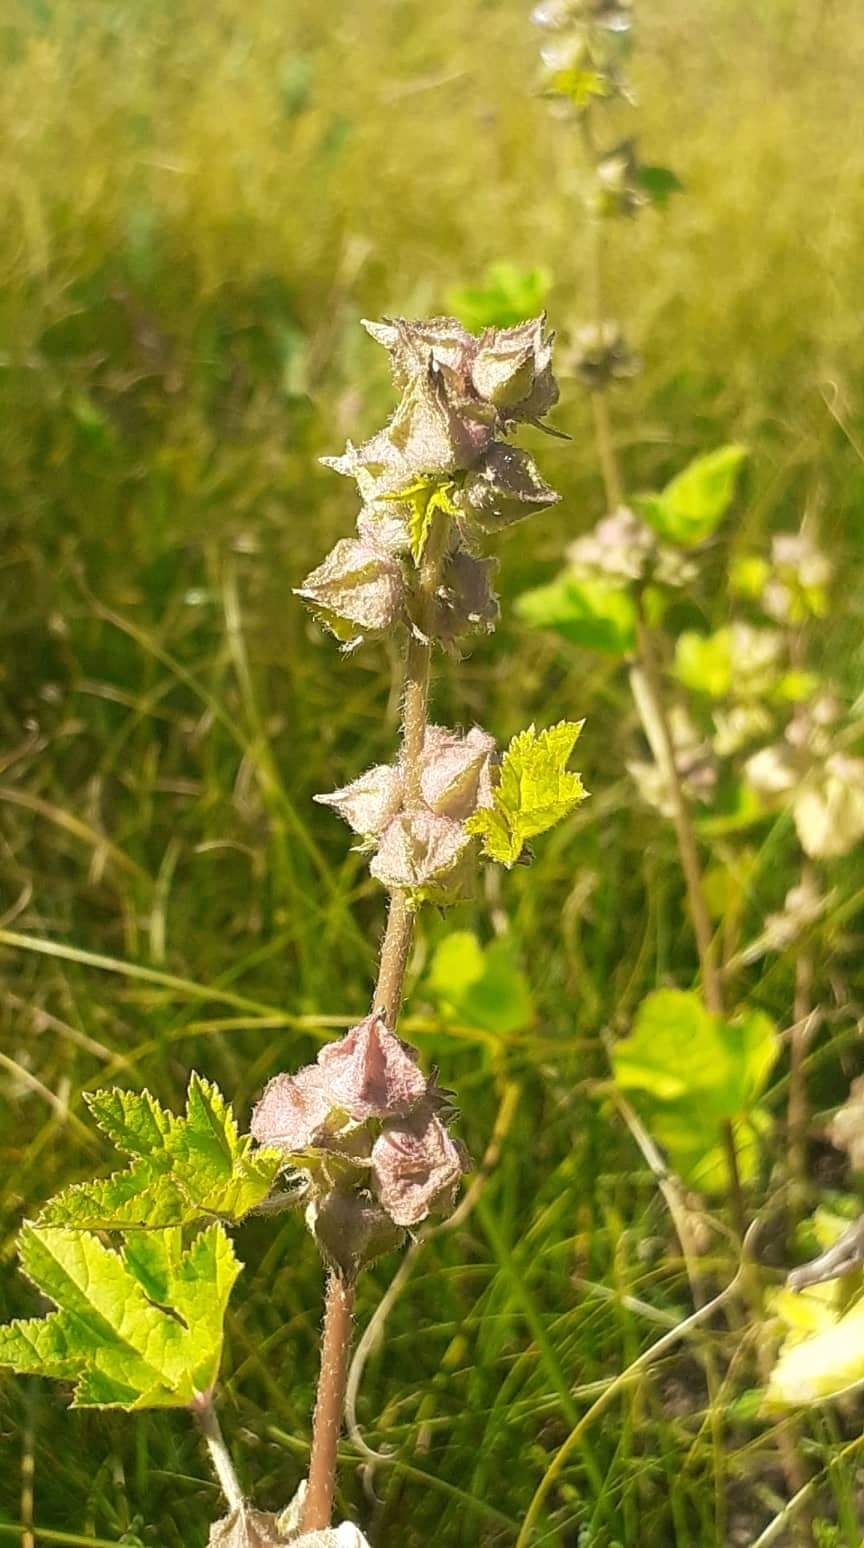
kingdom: Plantae
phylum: Tracheophyta
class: Magnoliopsida
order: Malvales
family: Malvaceae
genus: Malva
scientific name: Malva verticillata
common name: Chinese mallow
